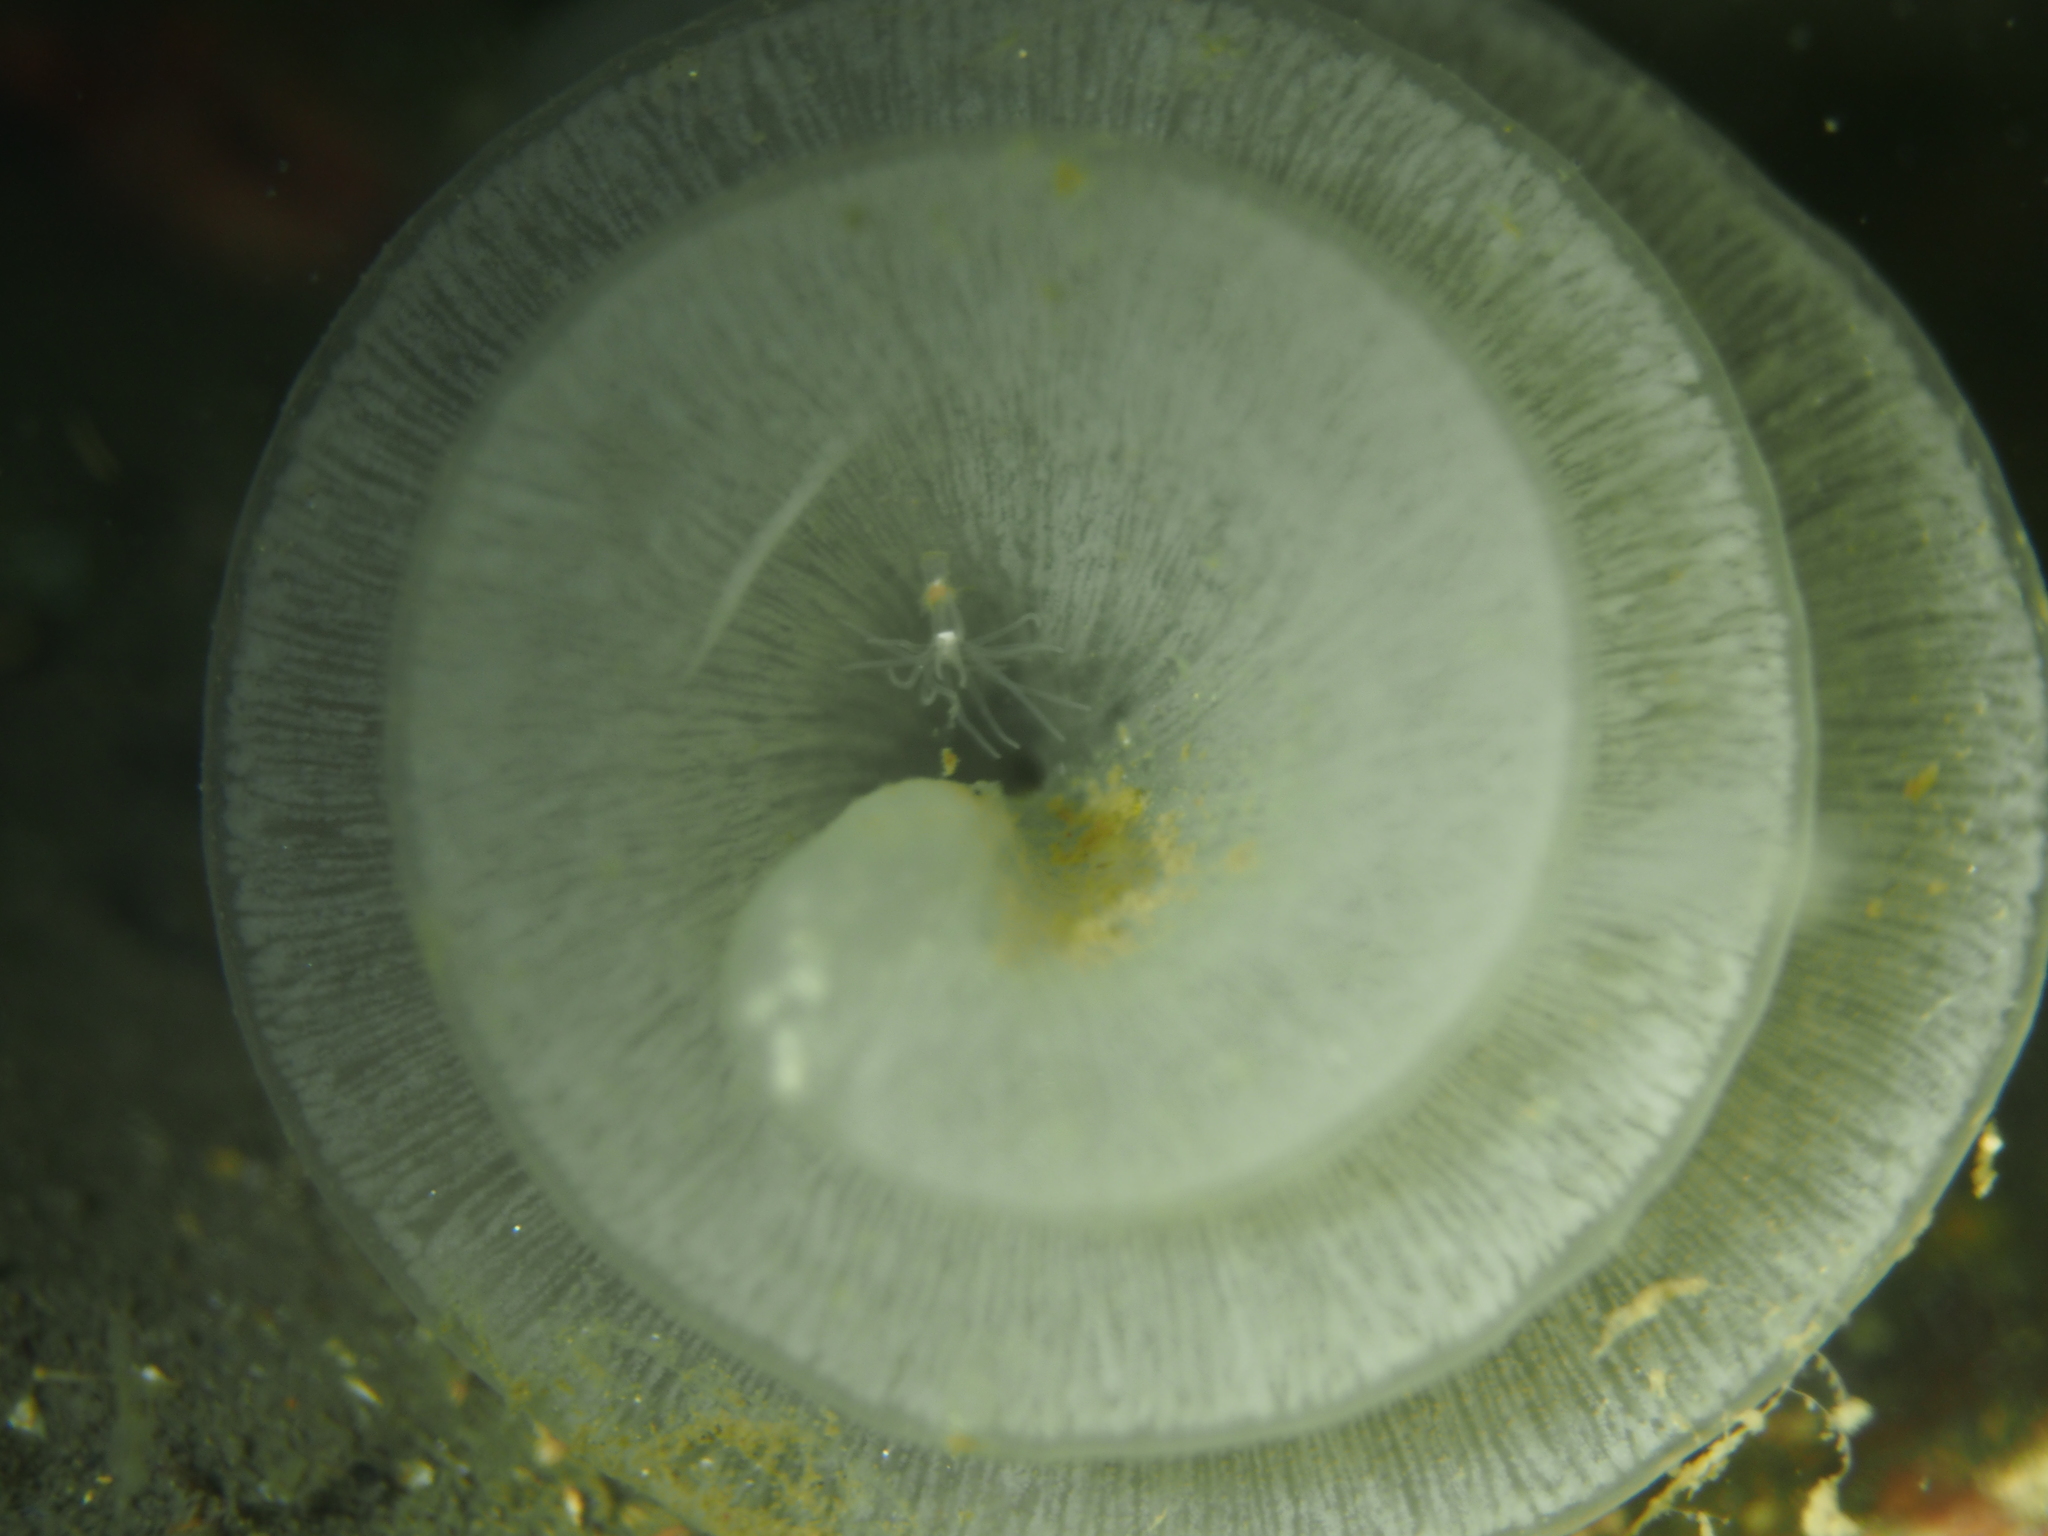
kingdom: Animalia
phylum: Mollusca
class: Gastropoda
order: Pleurobranchida
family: Pleurobranchidae
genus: Pleurobranchus
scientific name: Pleurobranchus membranaceus
